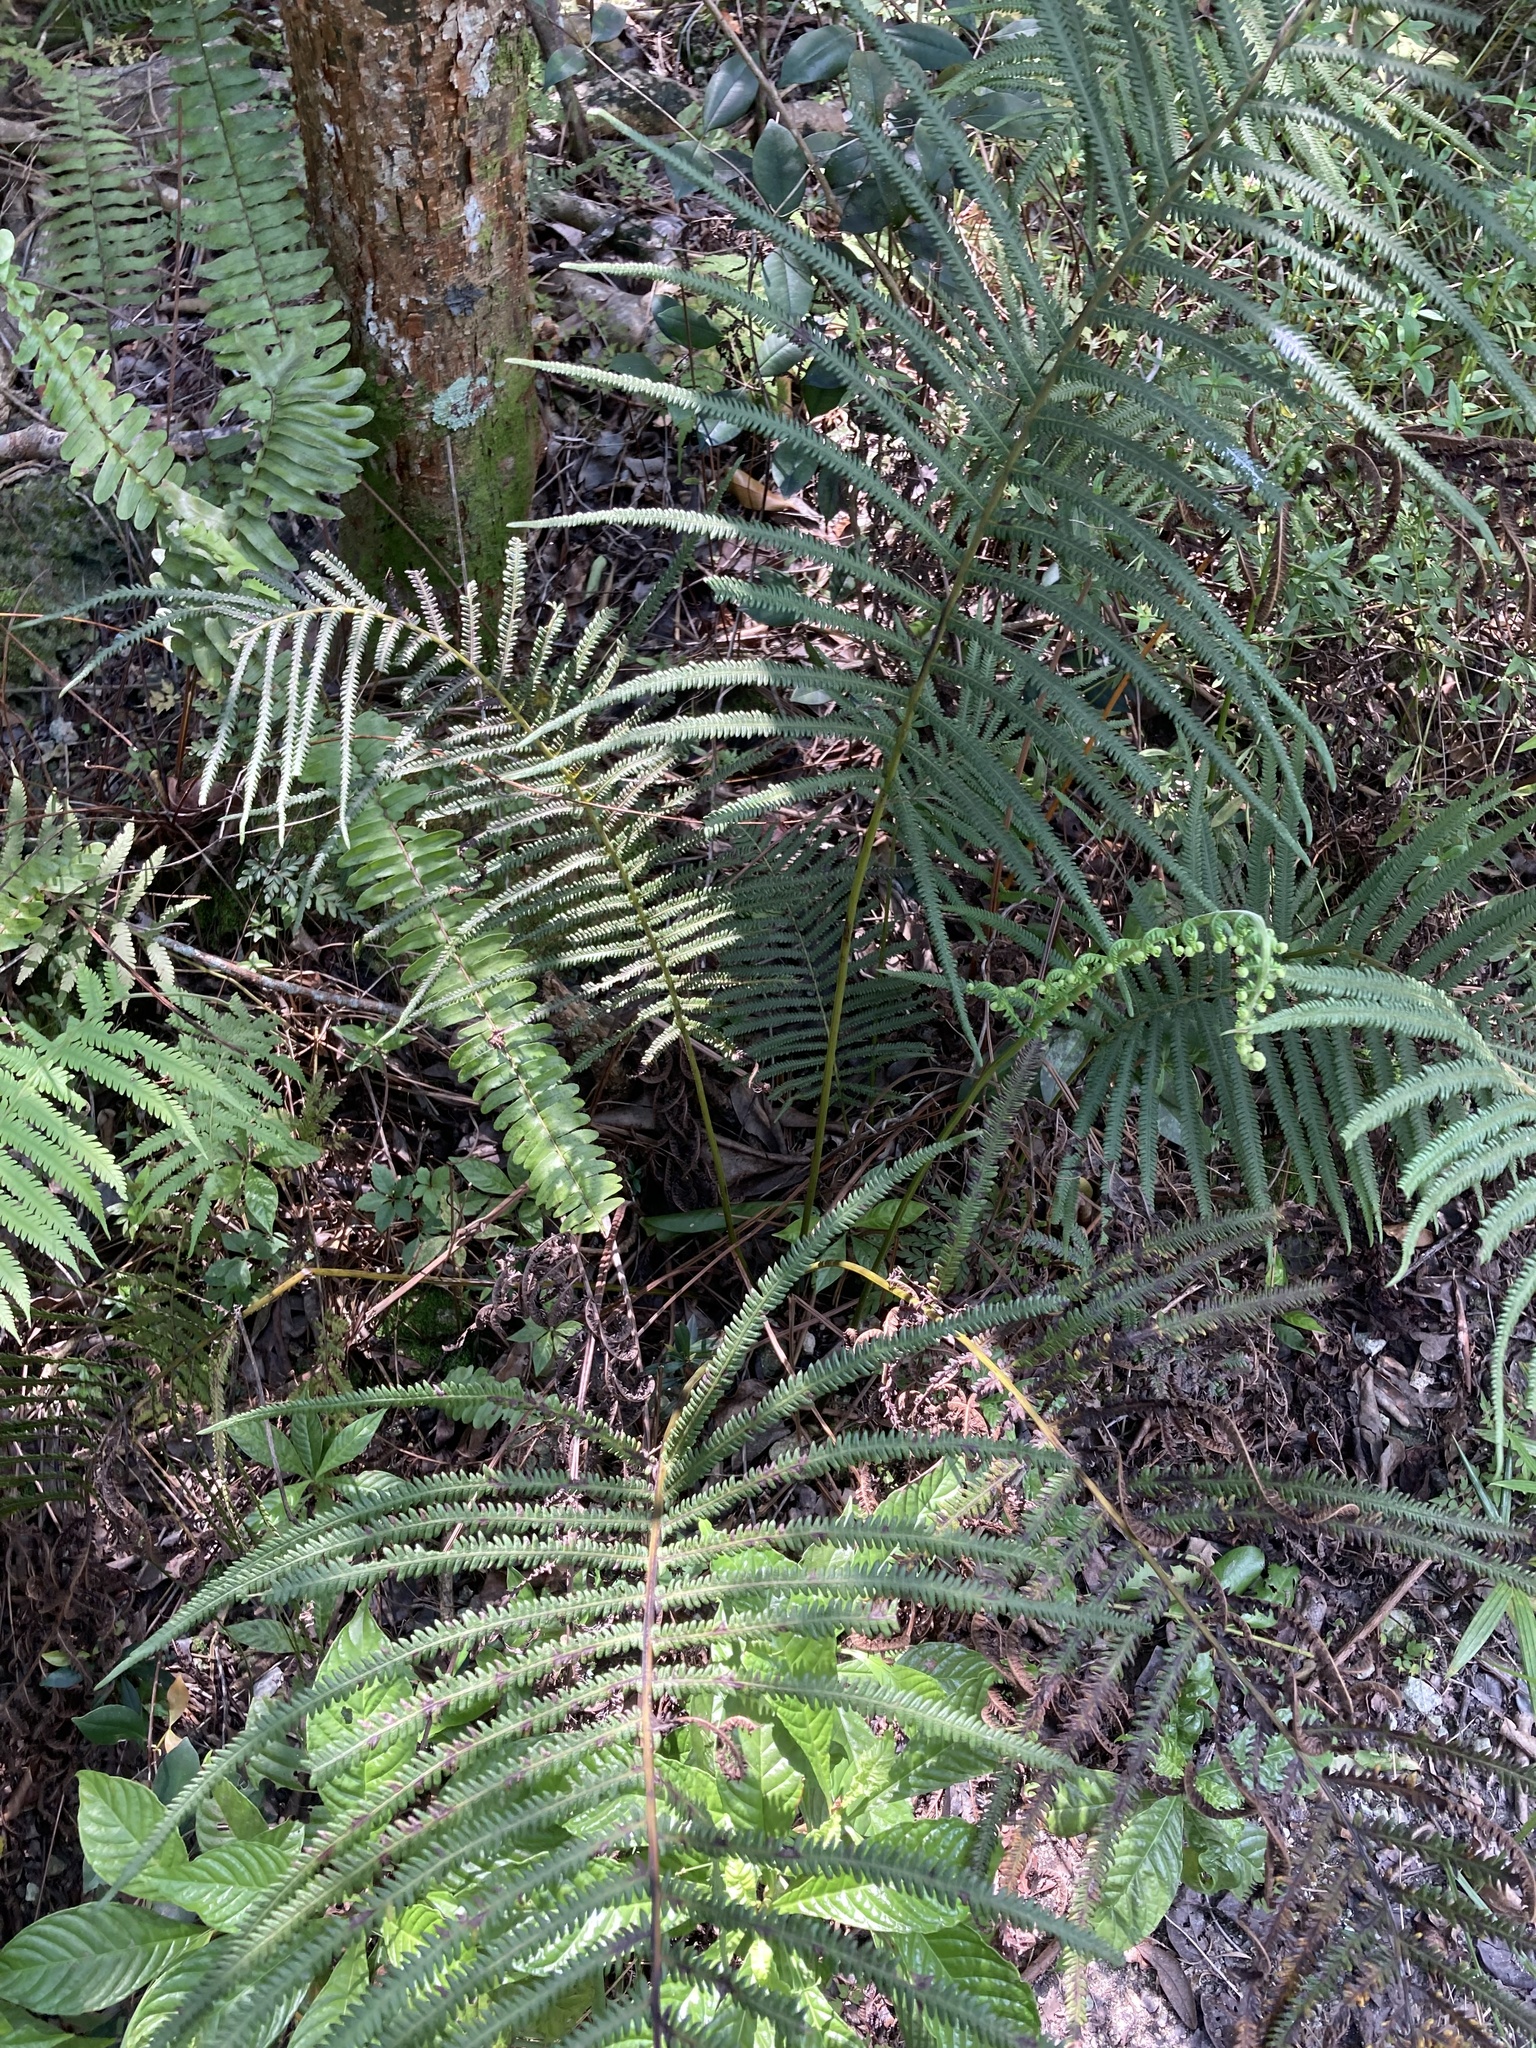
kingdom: Plantae
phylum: Tracheophyta
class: Polypodiopsida
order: Polypodiales
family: Thelypteridaceae
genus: Pelazoneuron
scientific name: Pelazoneuron augescens
